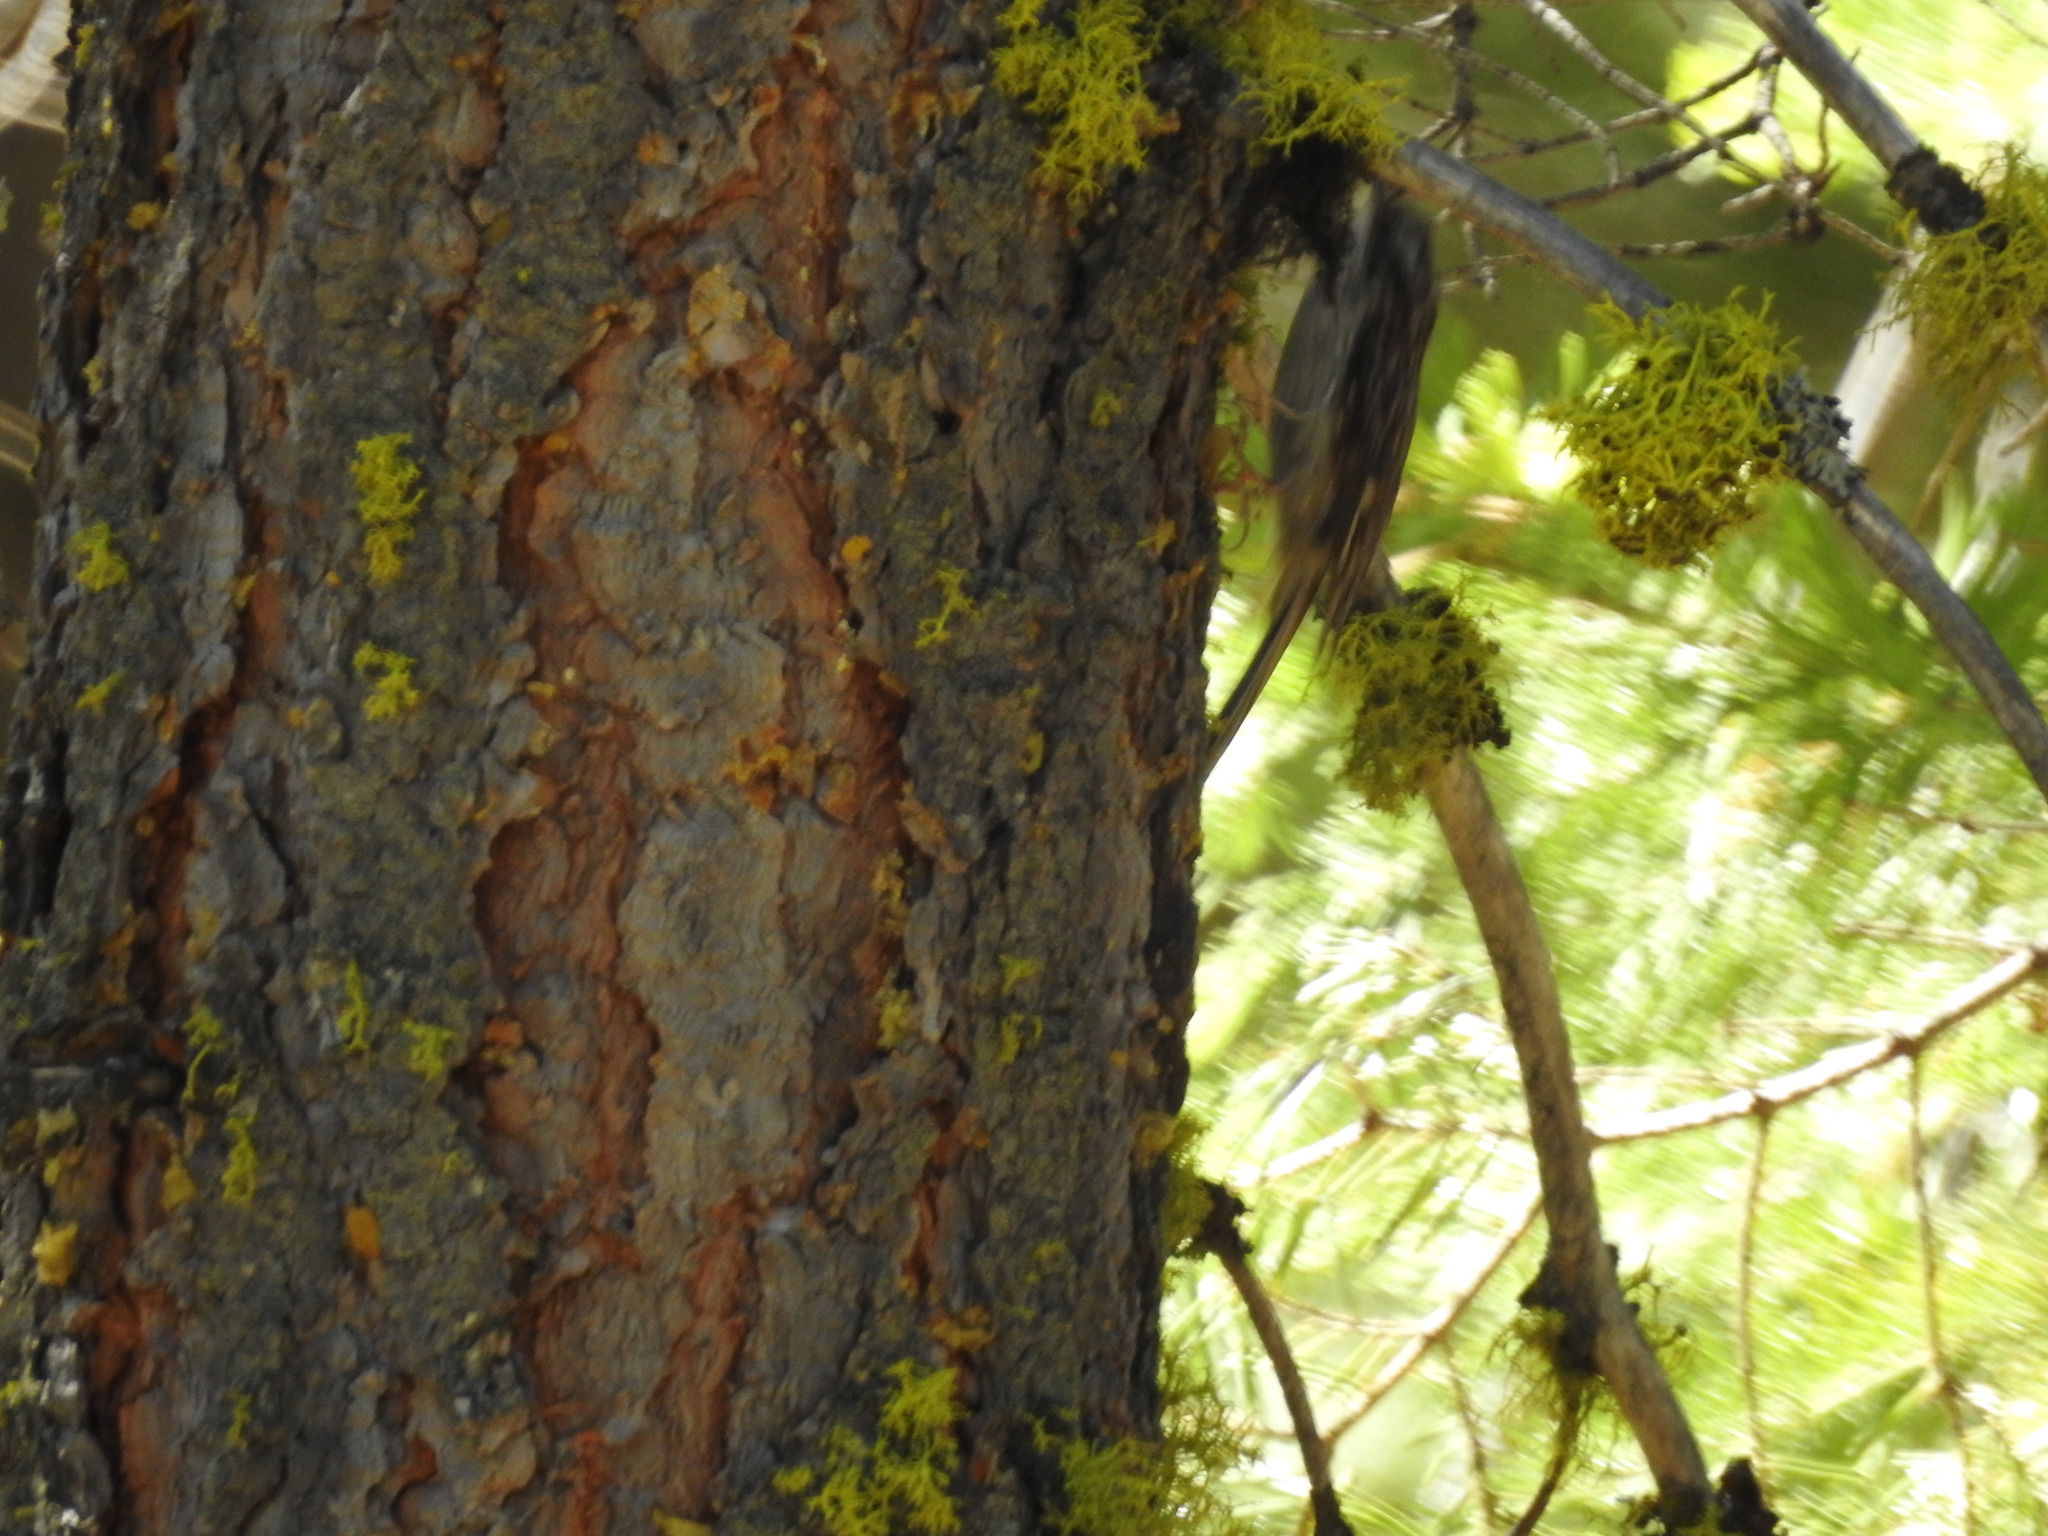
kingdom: Animalia
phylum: Chordata
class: Aves
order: Passeriformes
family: Certhiidae
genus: Certhia
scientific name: Certhia americana
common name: Brown creeper
